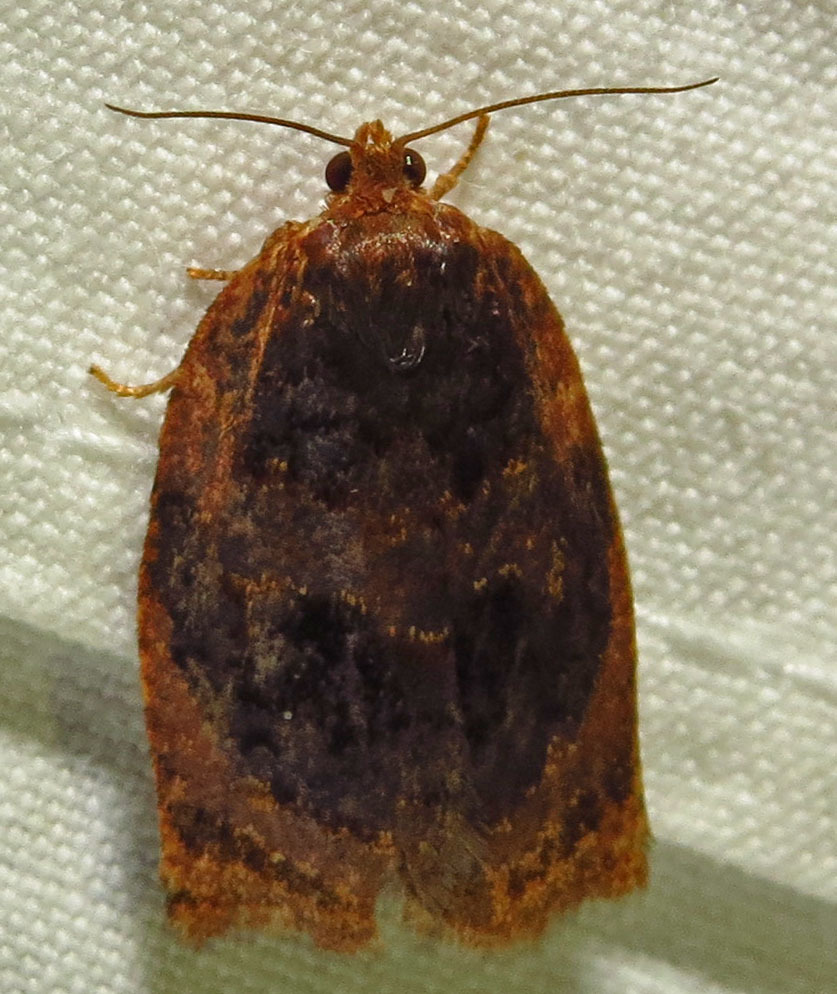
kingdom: Animalia
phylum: Arthropoda
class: Insecta
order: Lepidoptera
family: Tortricidae
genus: Archips
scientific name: Archips infumatana
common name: Smoked leafroller moth
